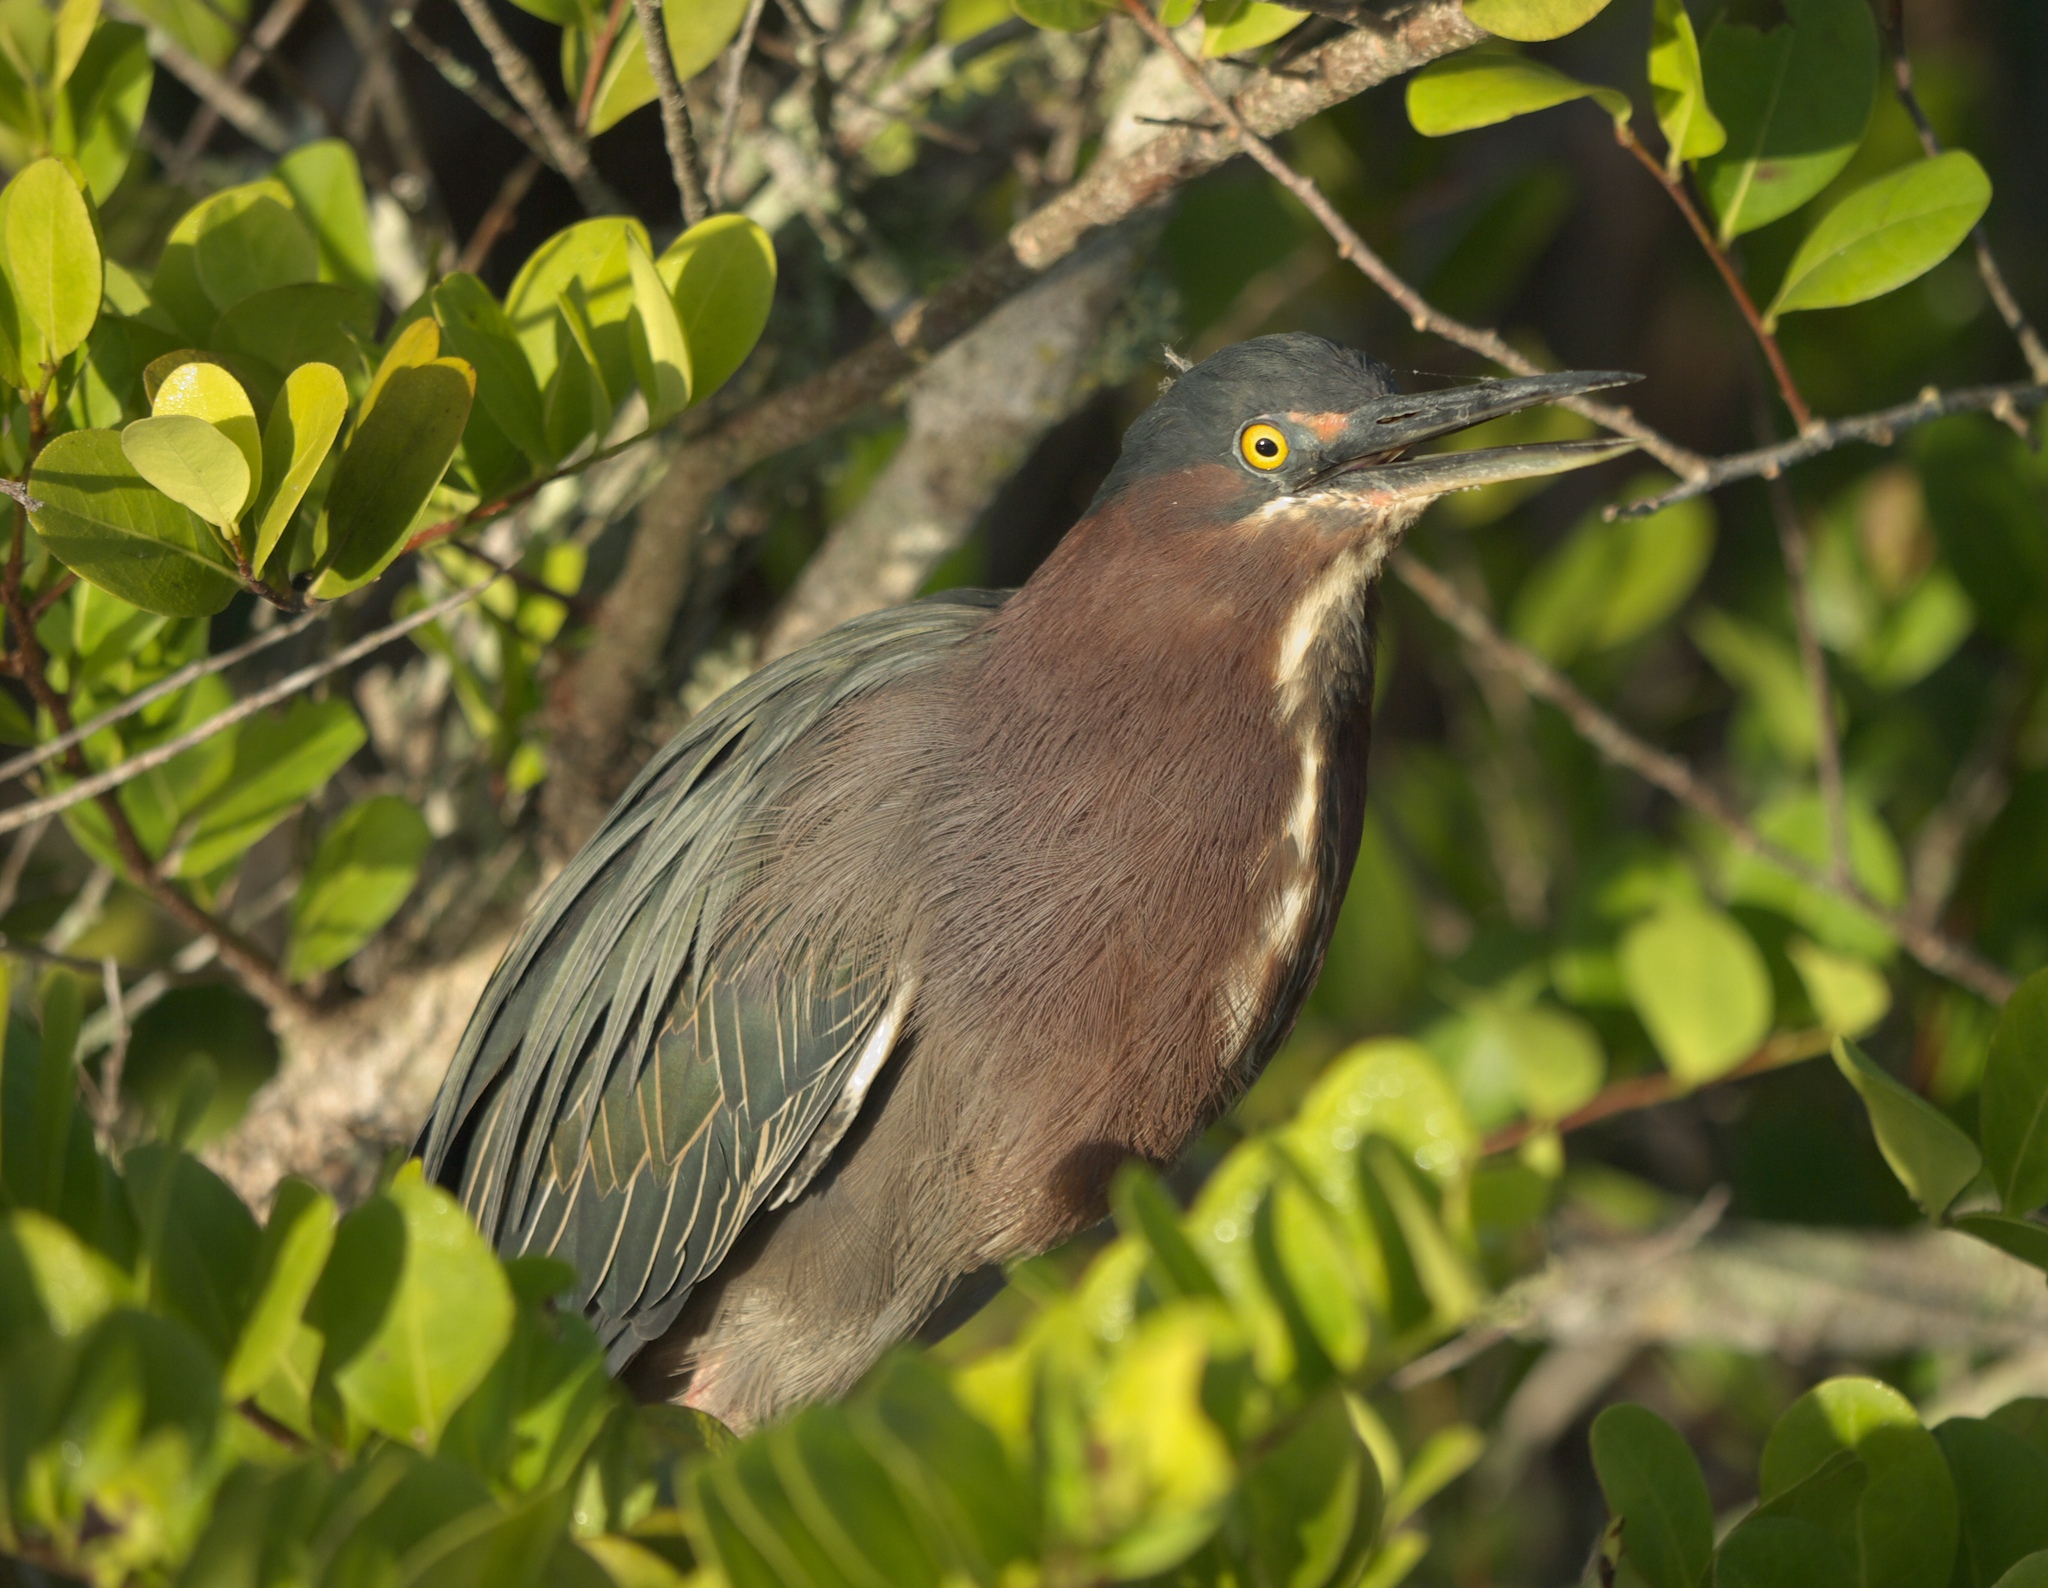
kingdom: Animalia
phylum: Chordata
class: Aves
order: Pelecaniformes
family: Ardeidae
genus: Butorides
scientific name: Butorides virescens
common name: Green heron
